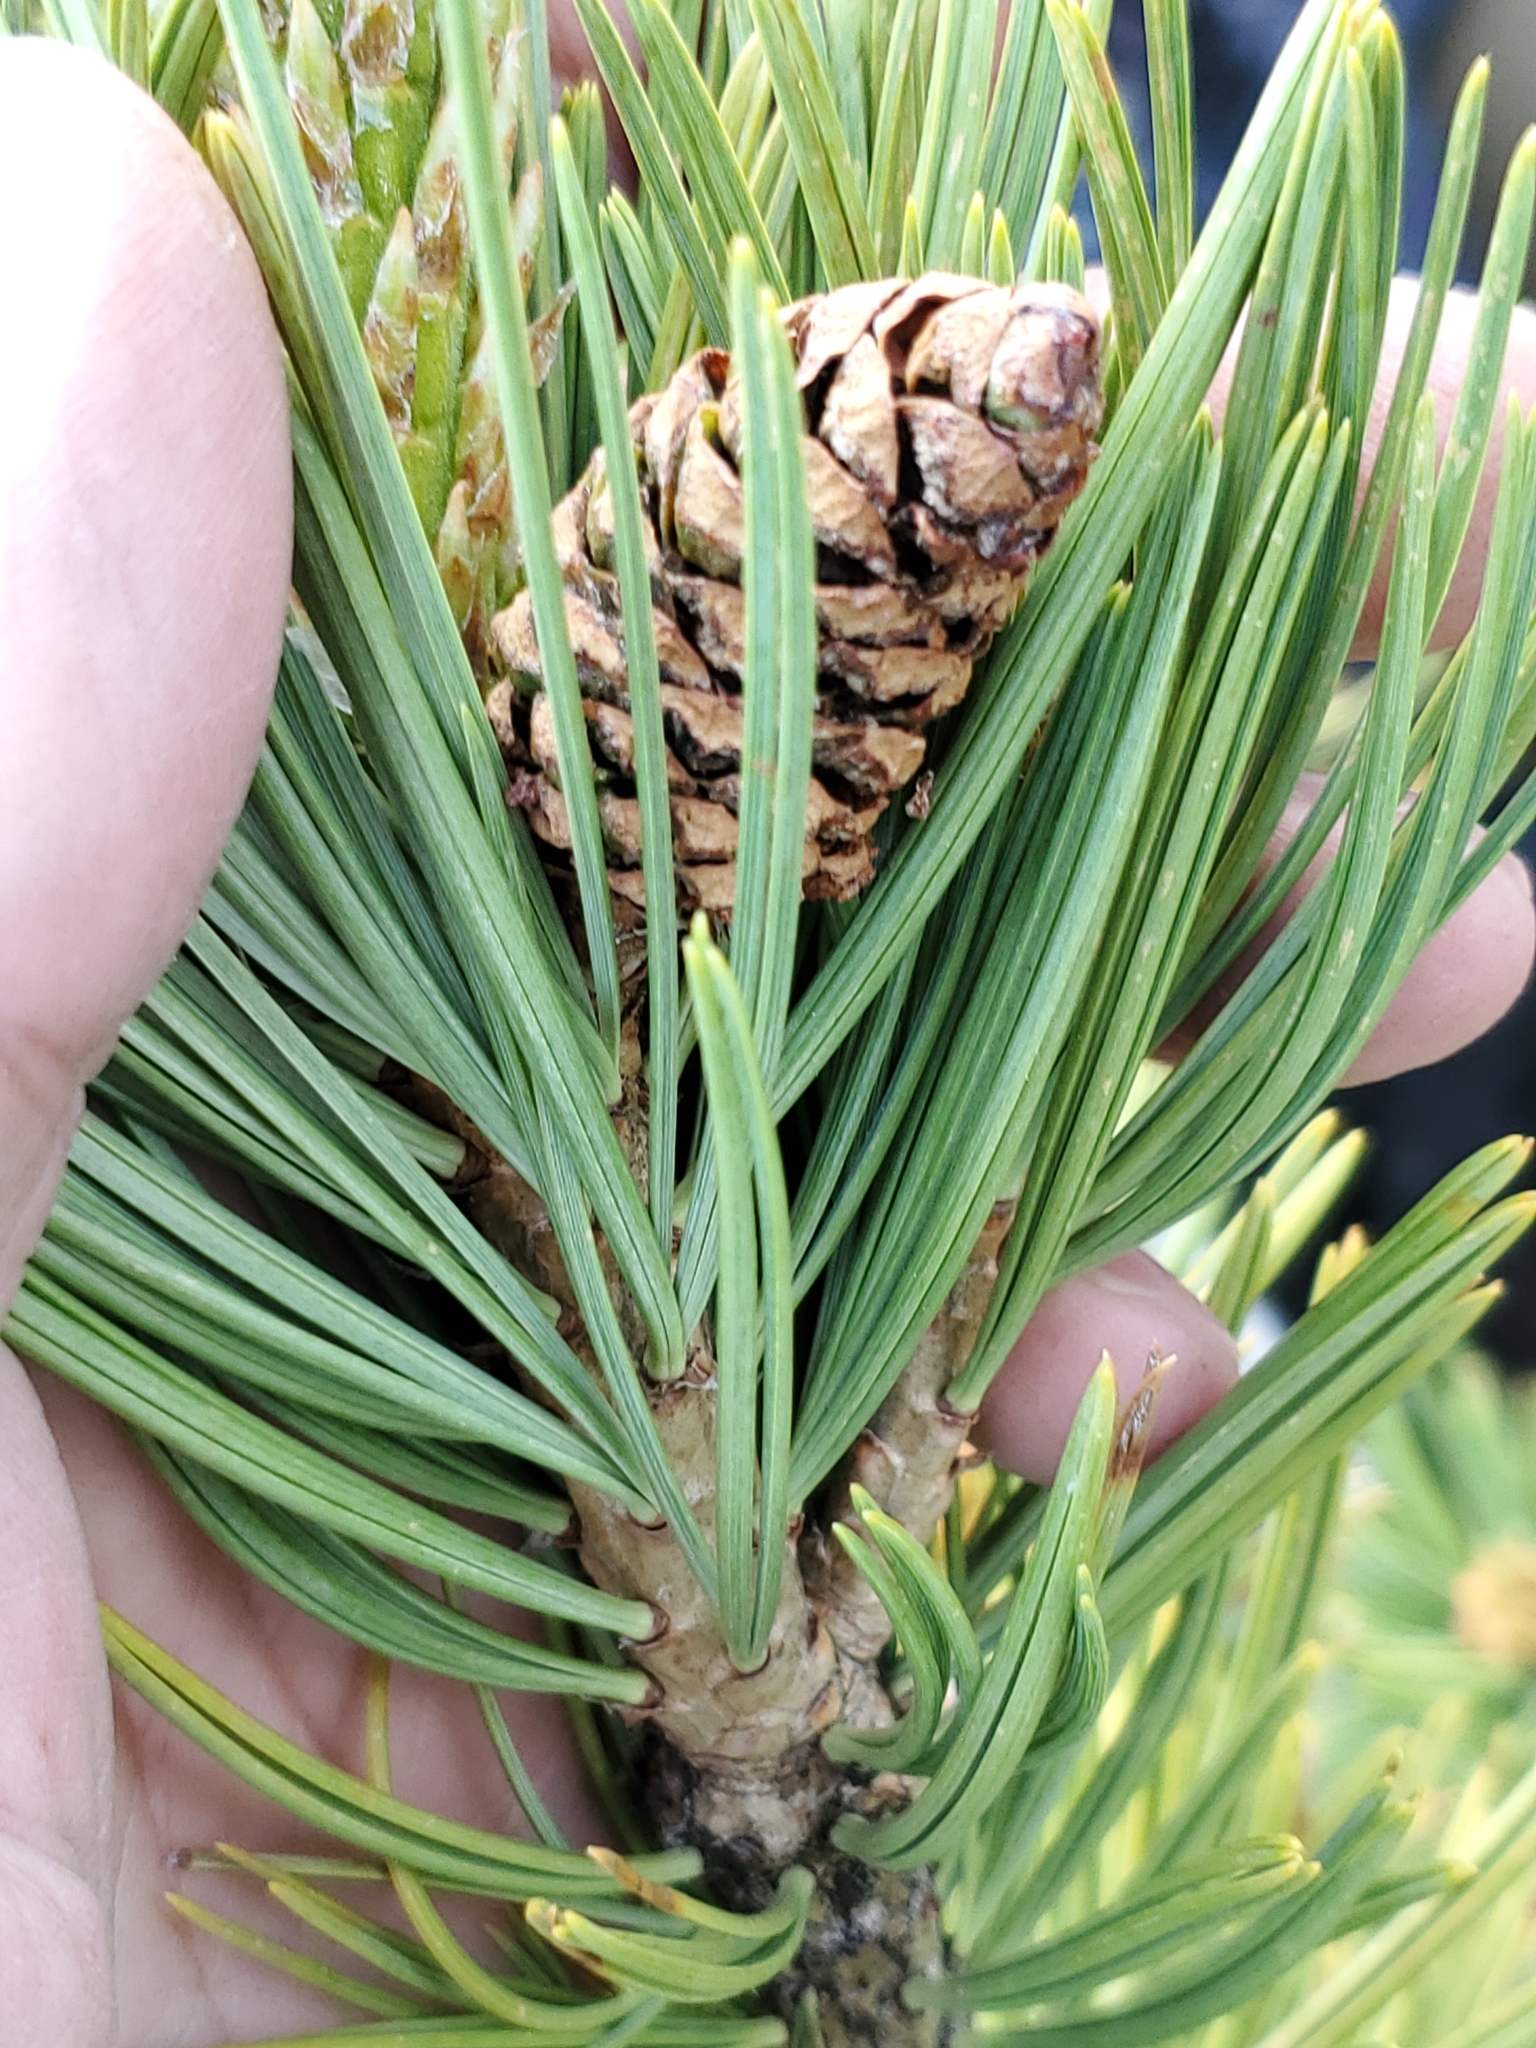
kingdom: Plantae
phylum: Tracheophyta
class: Pinopsida
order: Pinales
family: Pinaceae
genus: Pinus
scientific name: Pinus flexilis
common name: Limber pine
